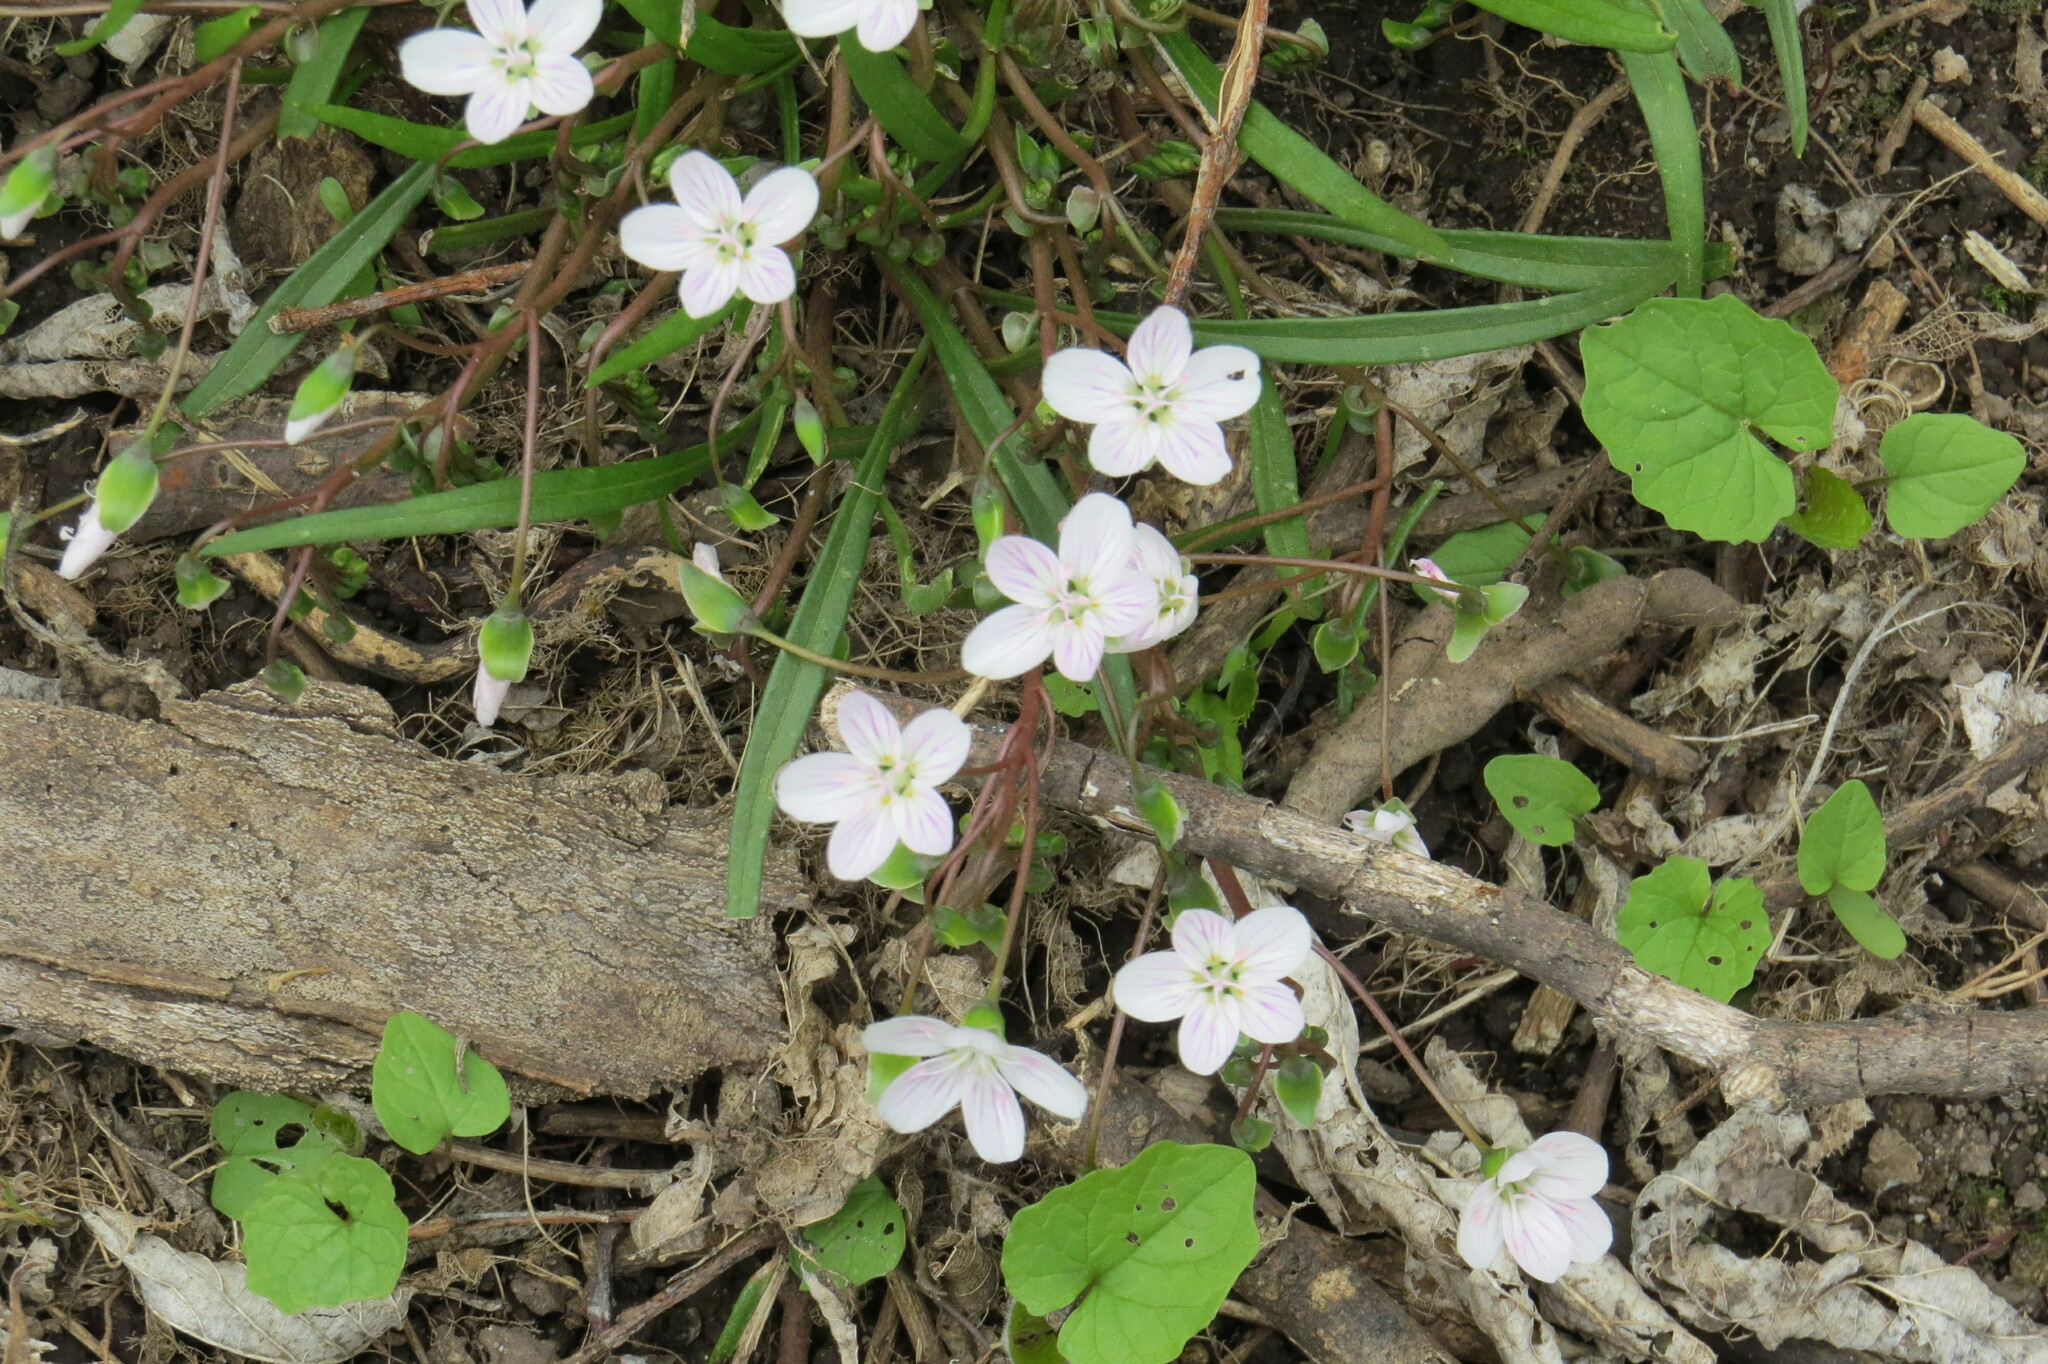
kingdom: Plantae
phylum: Tracheophyta
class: Magnoliopsida
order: Caryophyllales
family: Montiaceae
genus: Claytonia
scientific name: Claytonia virginica
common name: Virginia springbeauty
